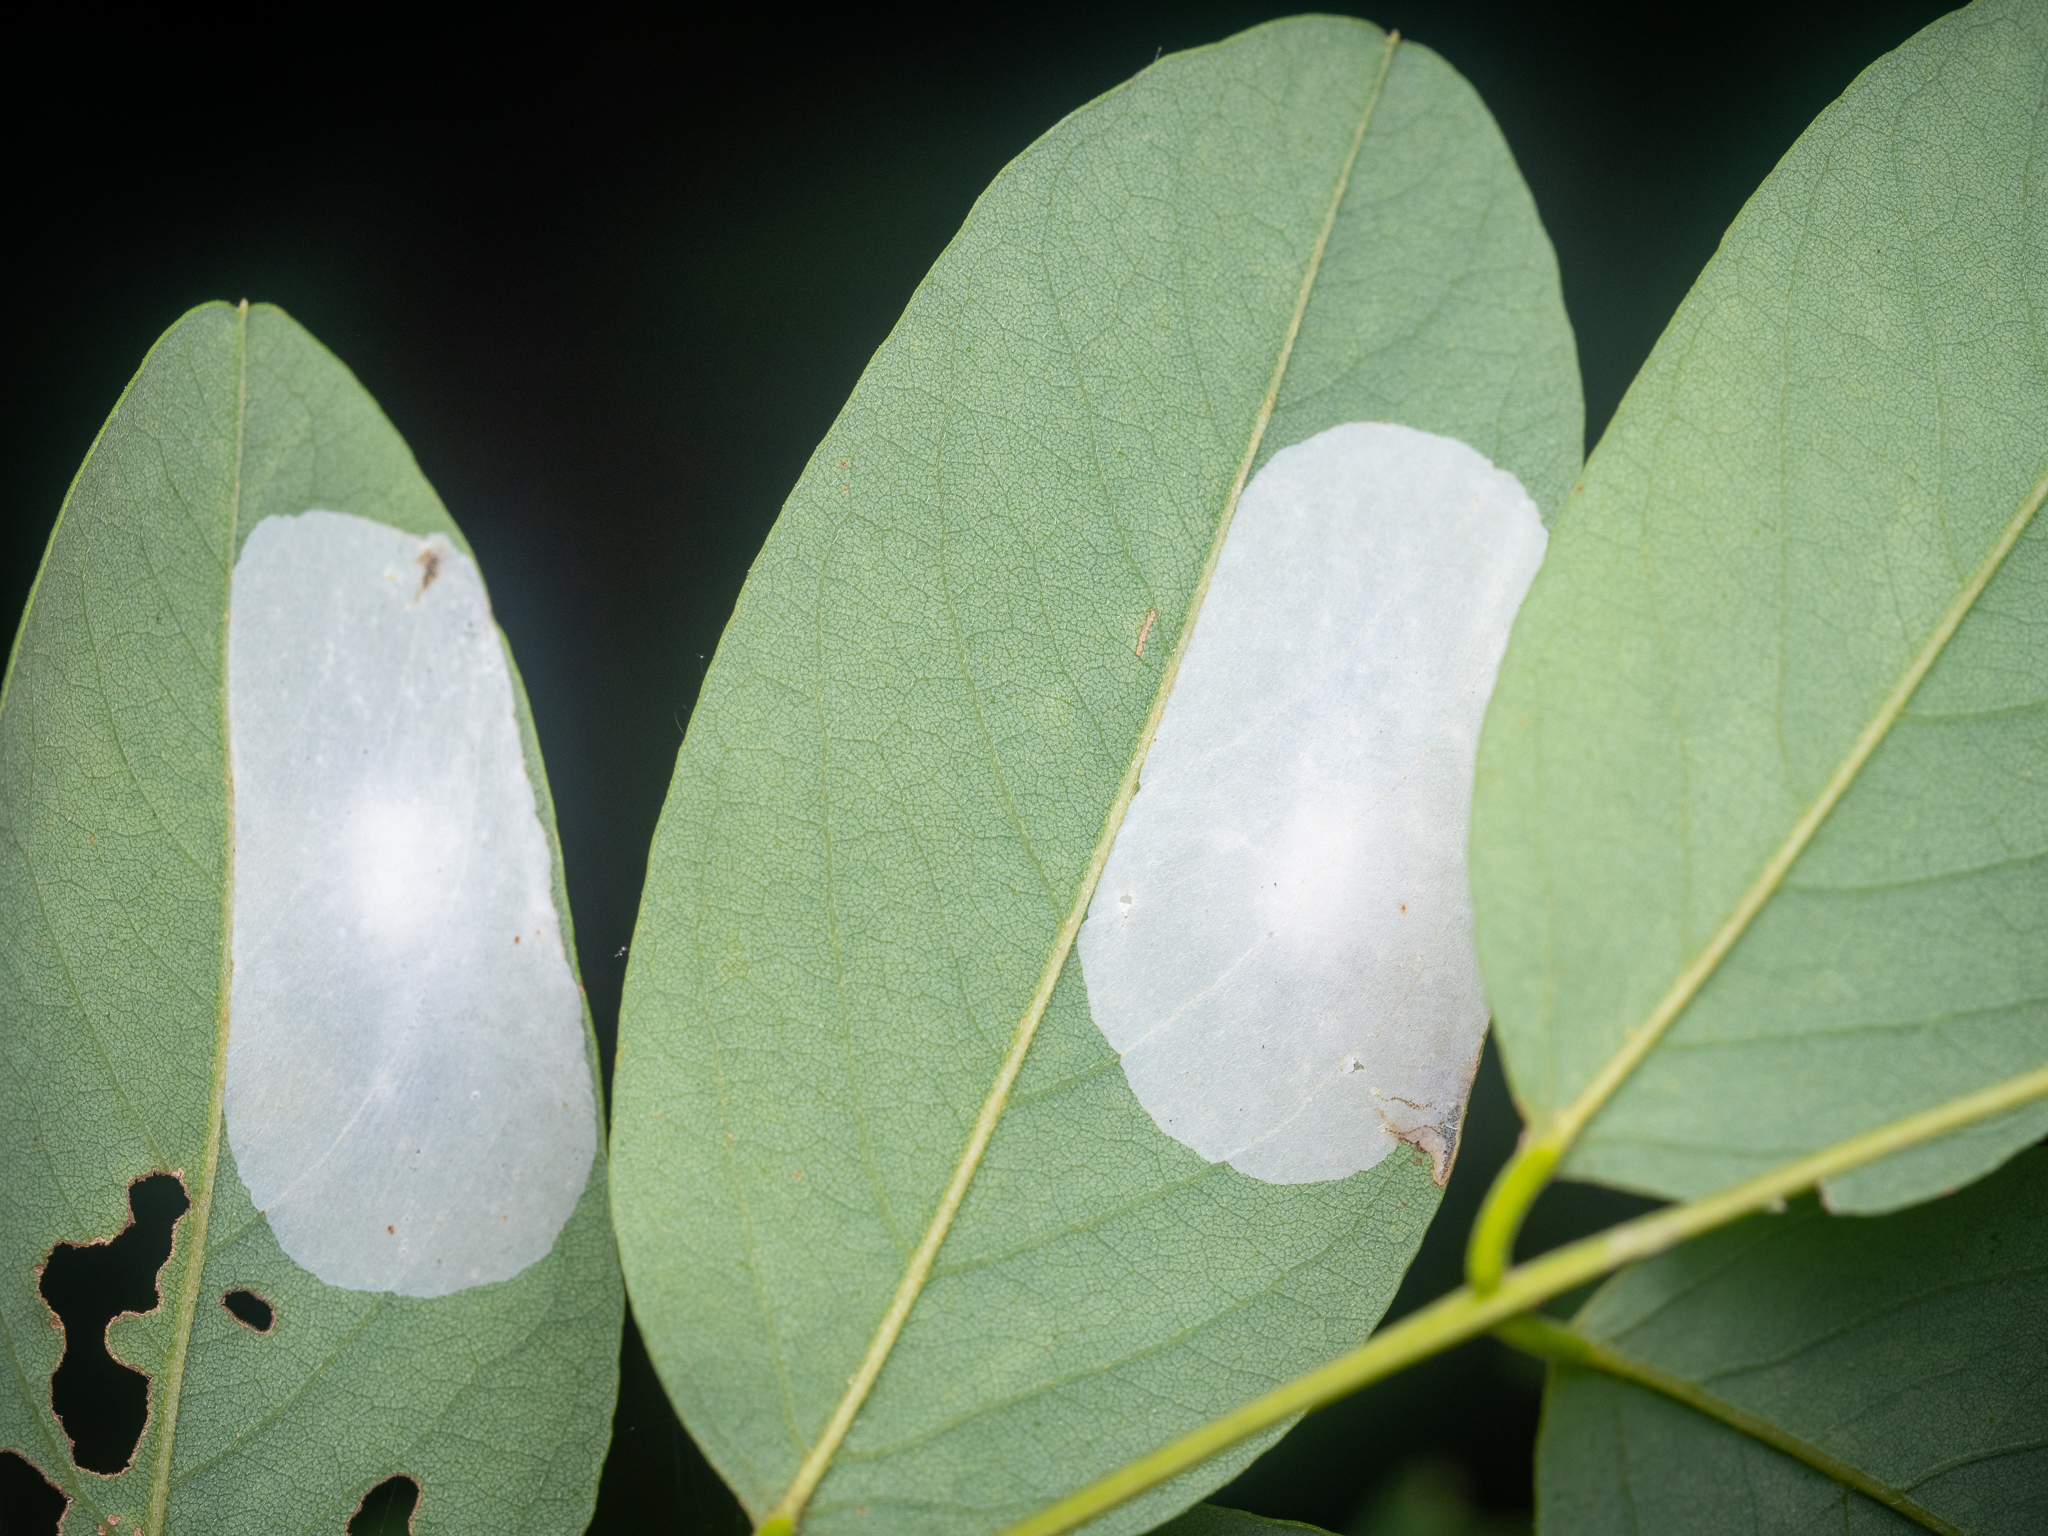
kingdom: Animalia
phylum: Arthropoda
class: Insecta
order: Lepidoptera
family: Gracillariidae
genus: Macrosaccus
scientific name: Macrosaccus robiniella
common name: Leaf blotch miner moth
